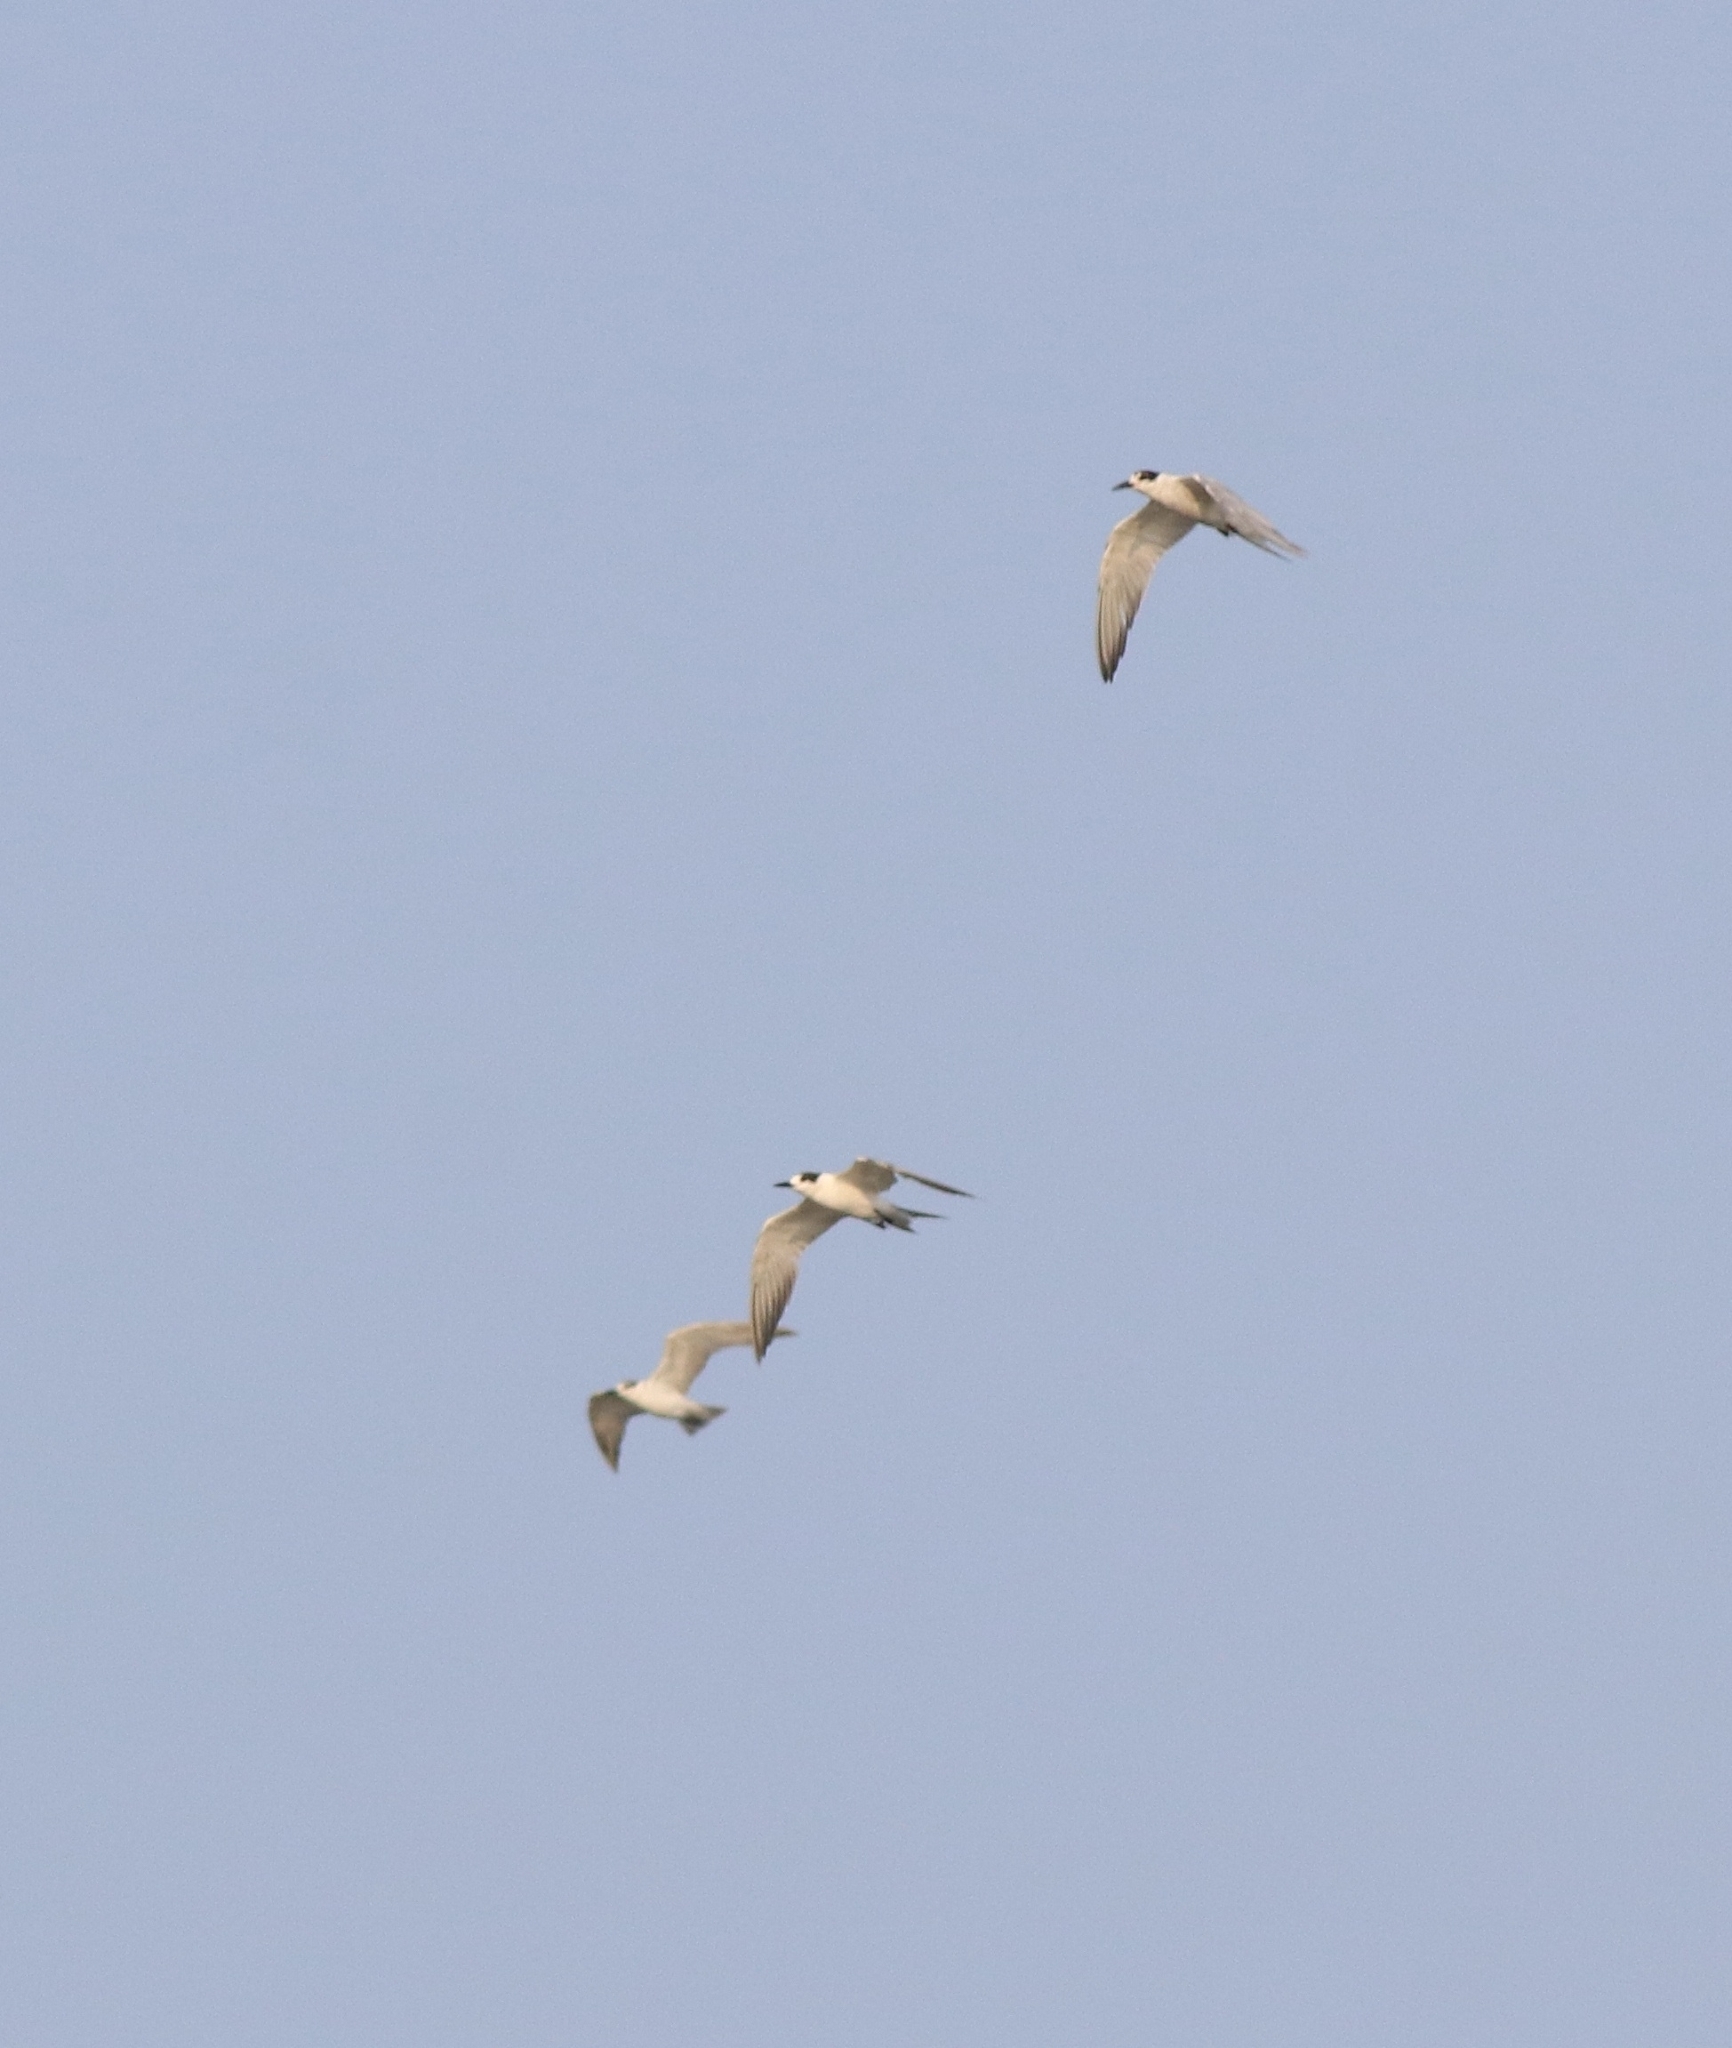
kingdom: Animalia
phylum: Chordata
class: Aves
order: Charadriiformes
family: Laridae
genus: Sterna
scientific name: Sterna hirundo
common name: Common tern
